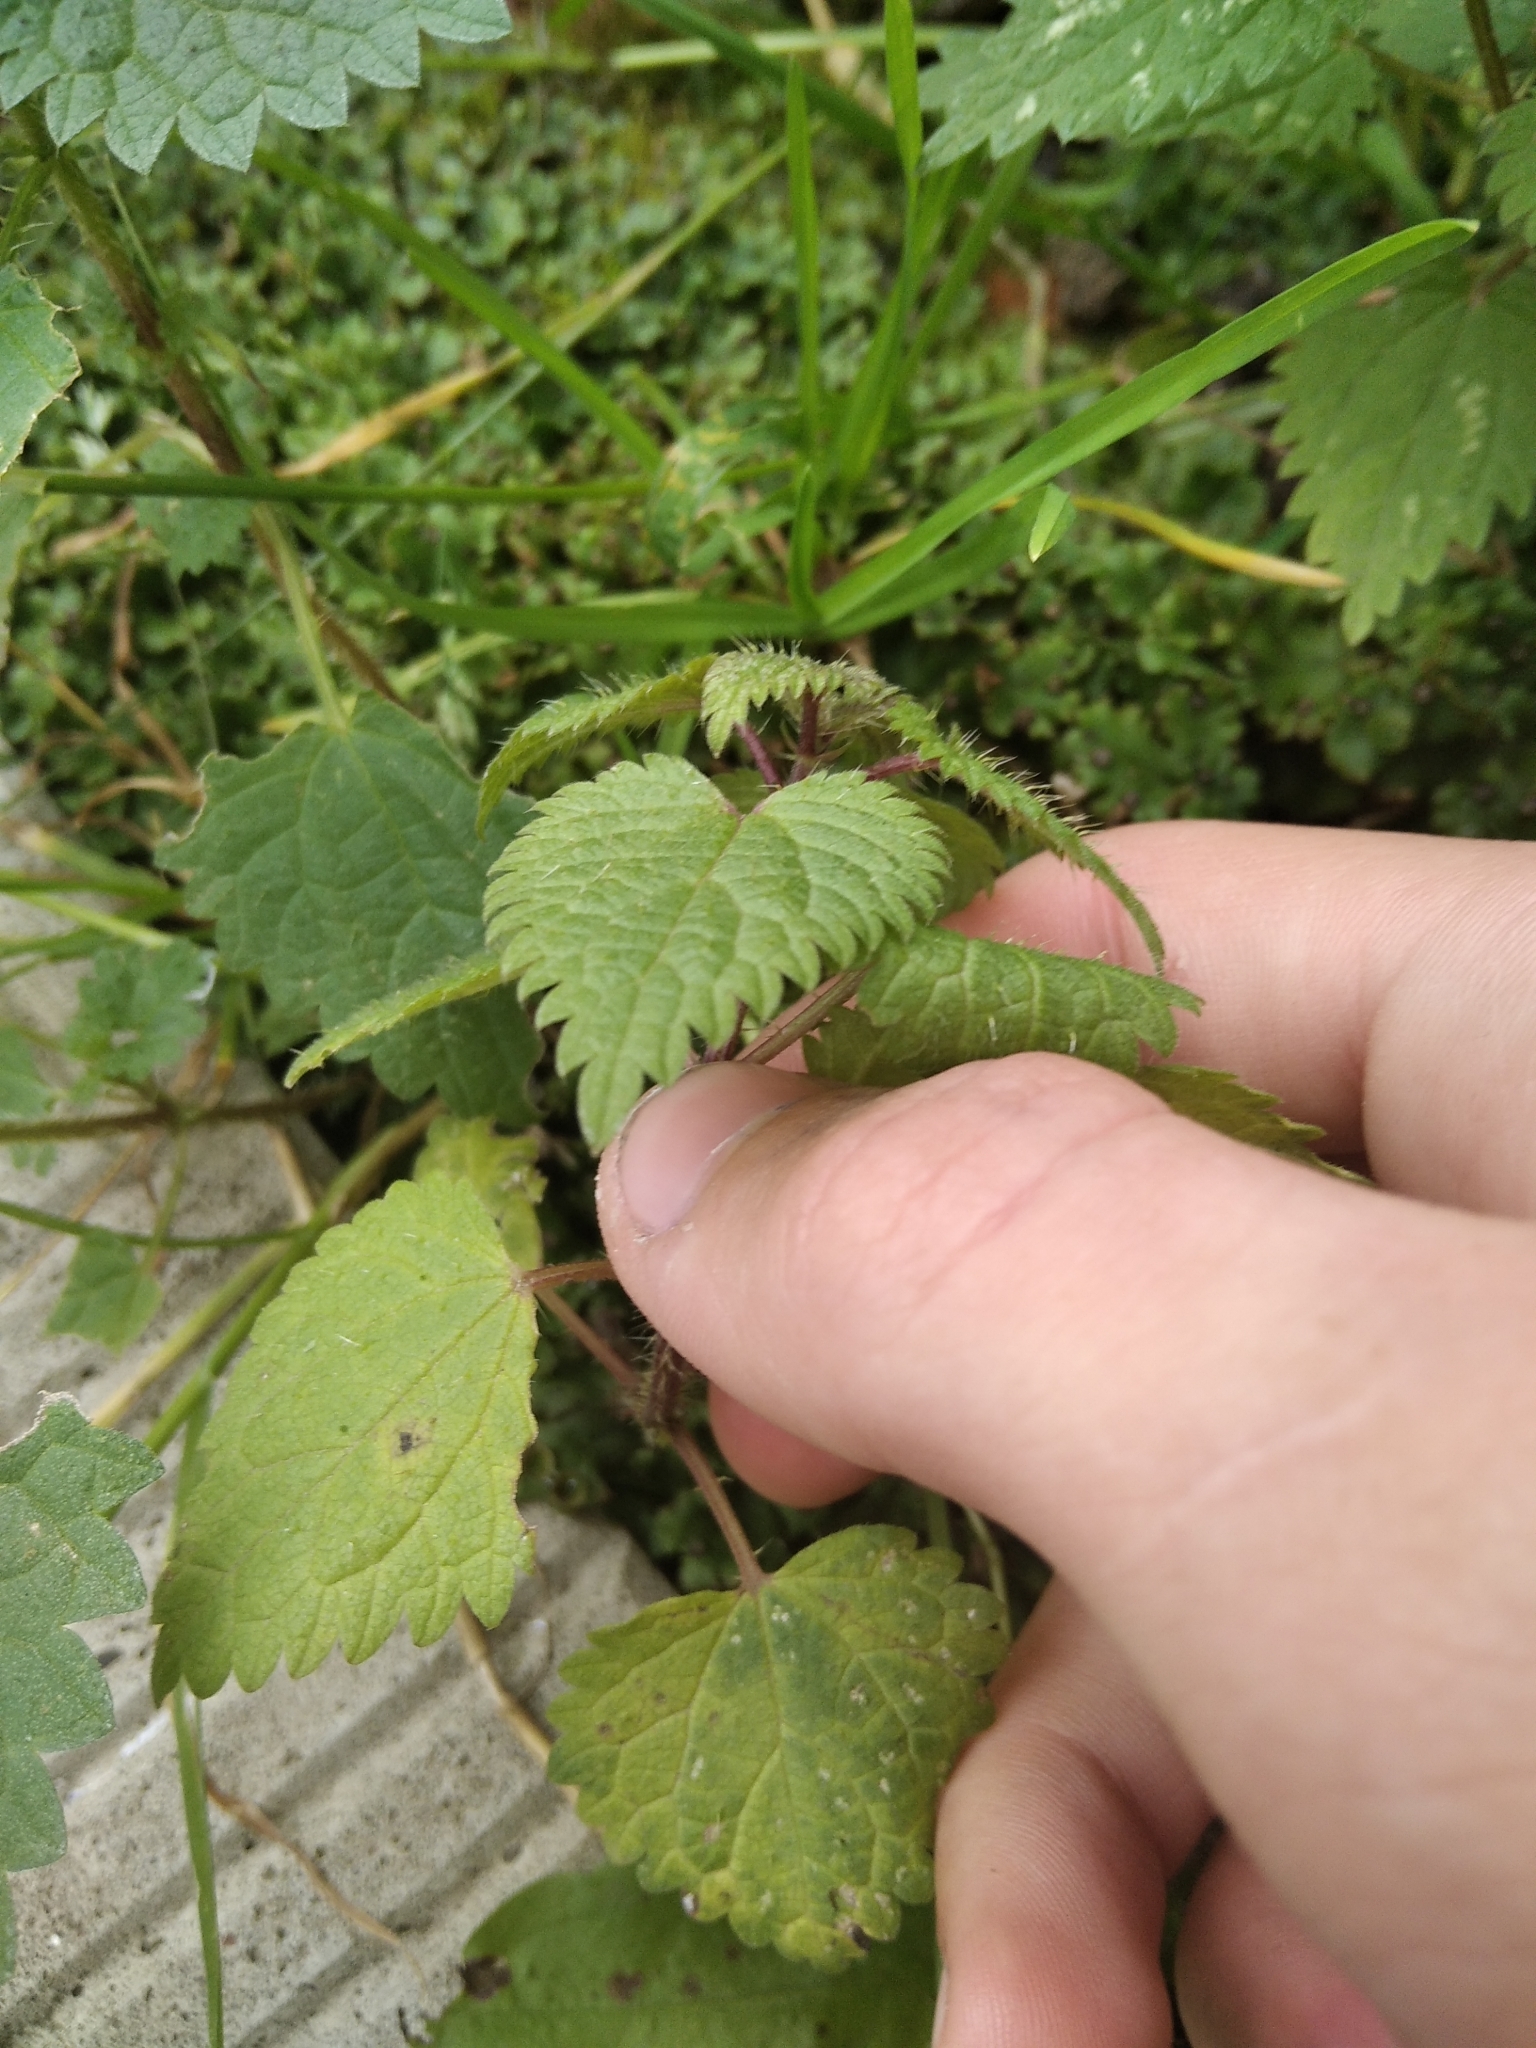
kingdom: Plantae
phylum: Tracheophyta
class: Magnoliopsida
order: Rosales
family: Urticaceae
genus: Urtica
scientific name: Urtica dioica
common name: Common nettle
